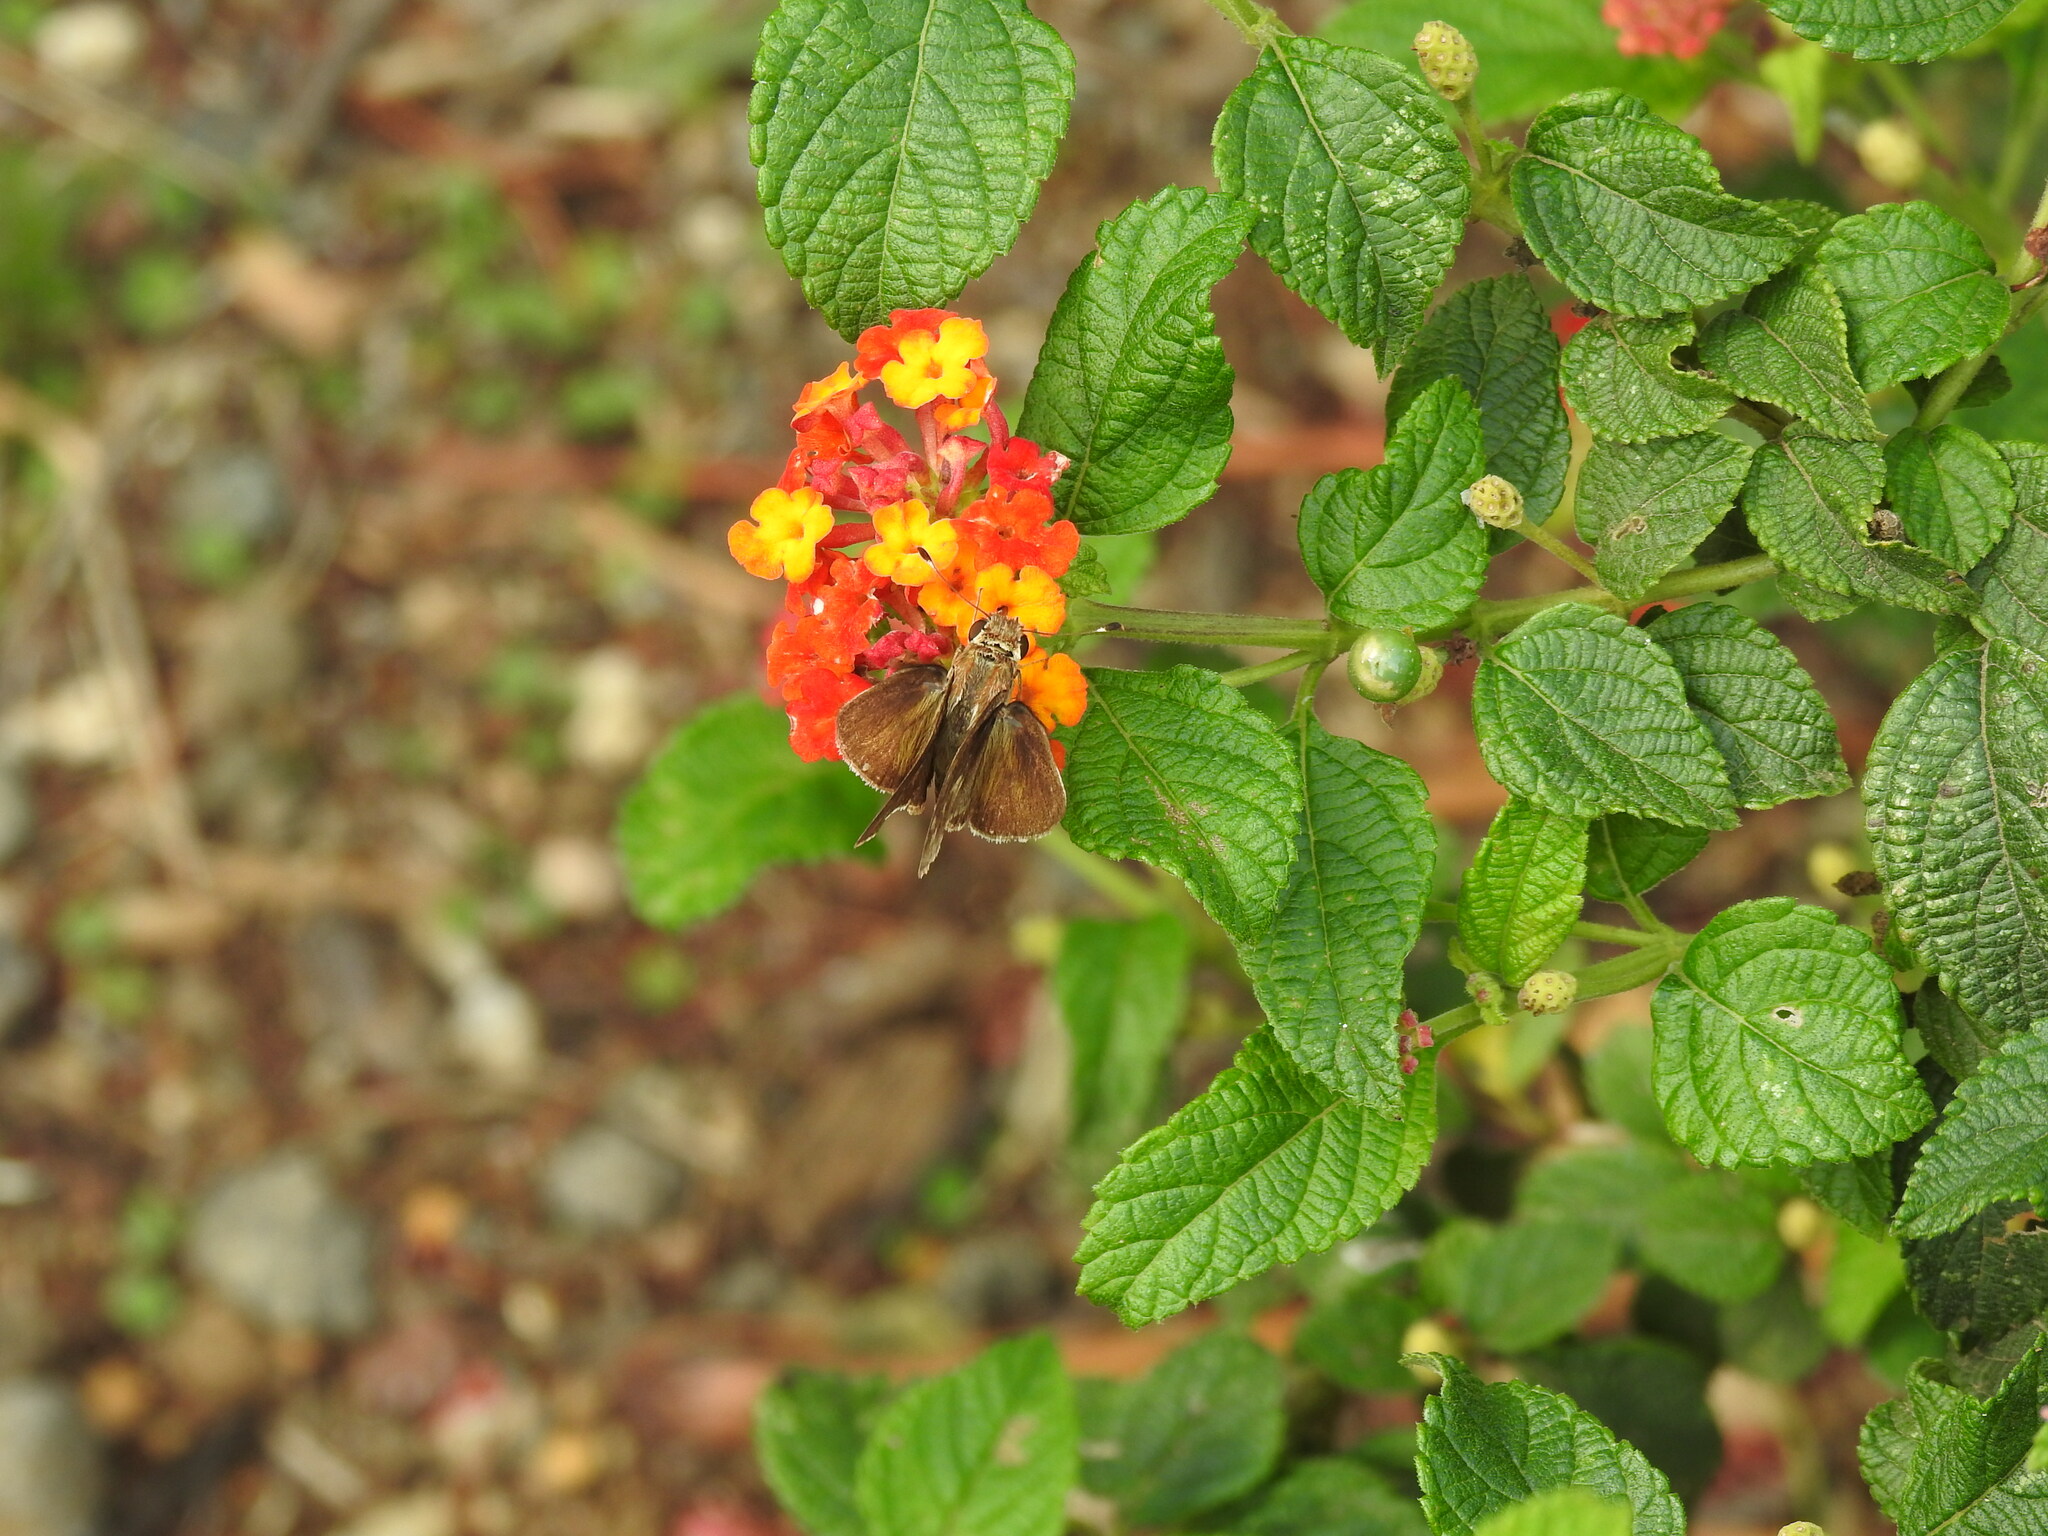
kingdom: Animalia
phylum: Arthropoda
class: Insecta
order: Lepidoptera
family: Hesperiidae
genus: Pompeius
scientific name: Pompeius pompeius
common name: Pompeius skipper
